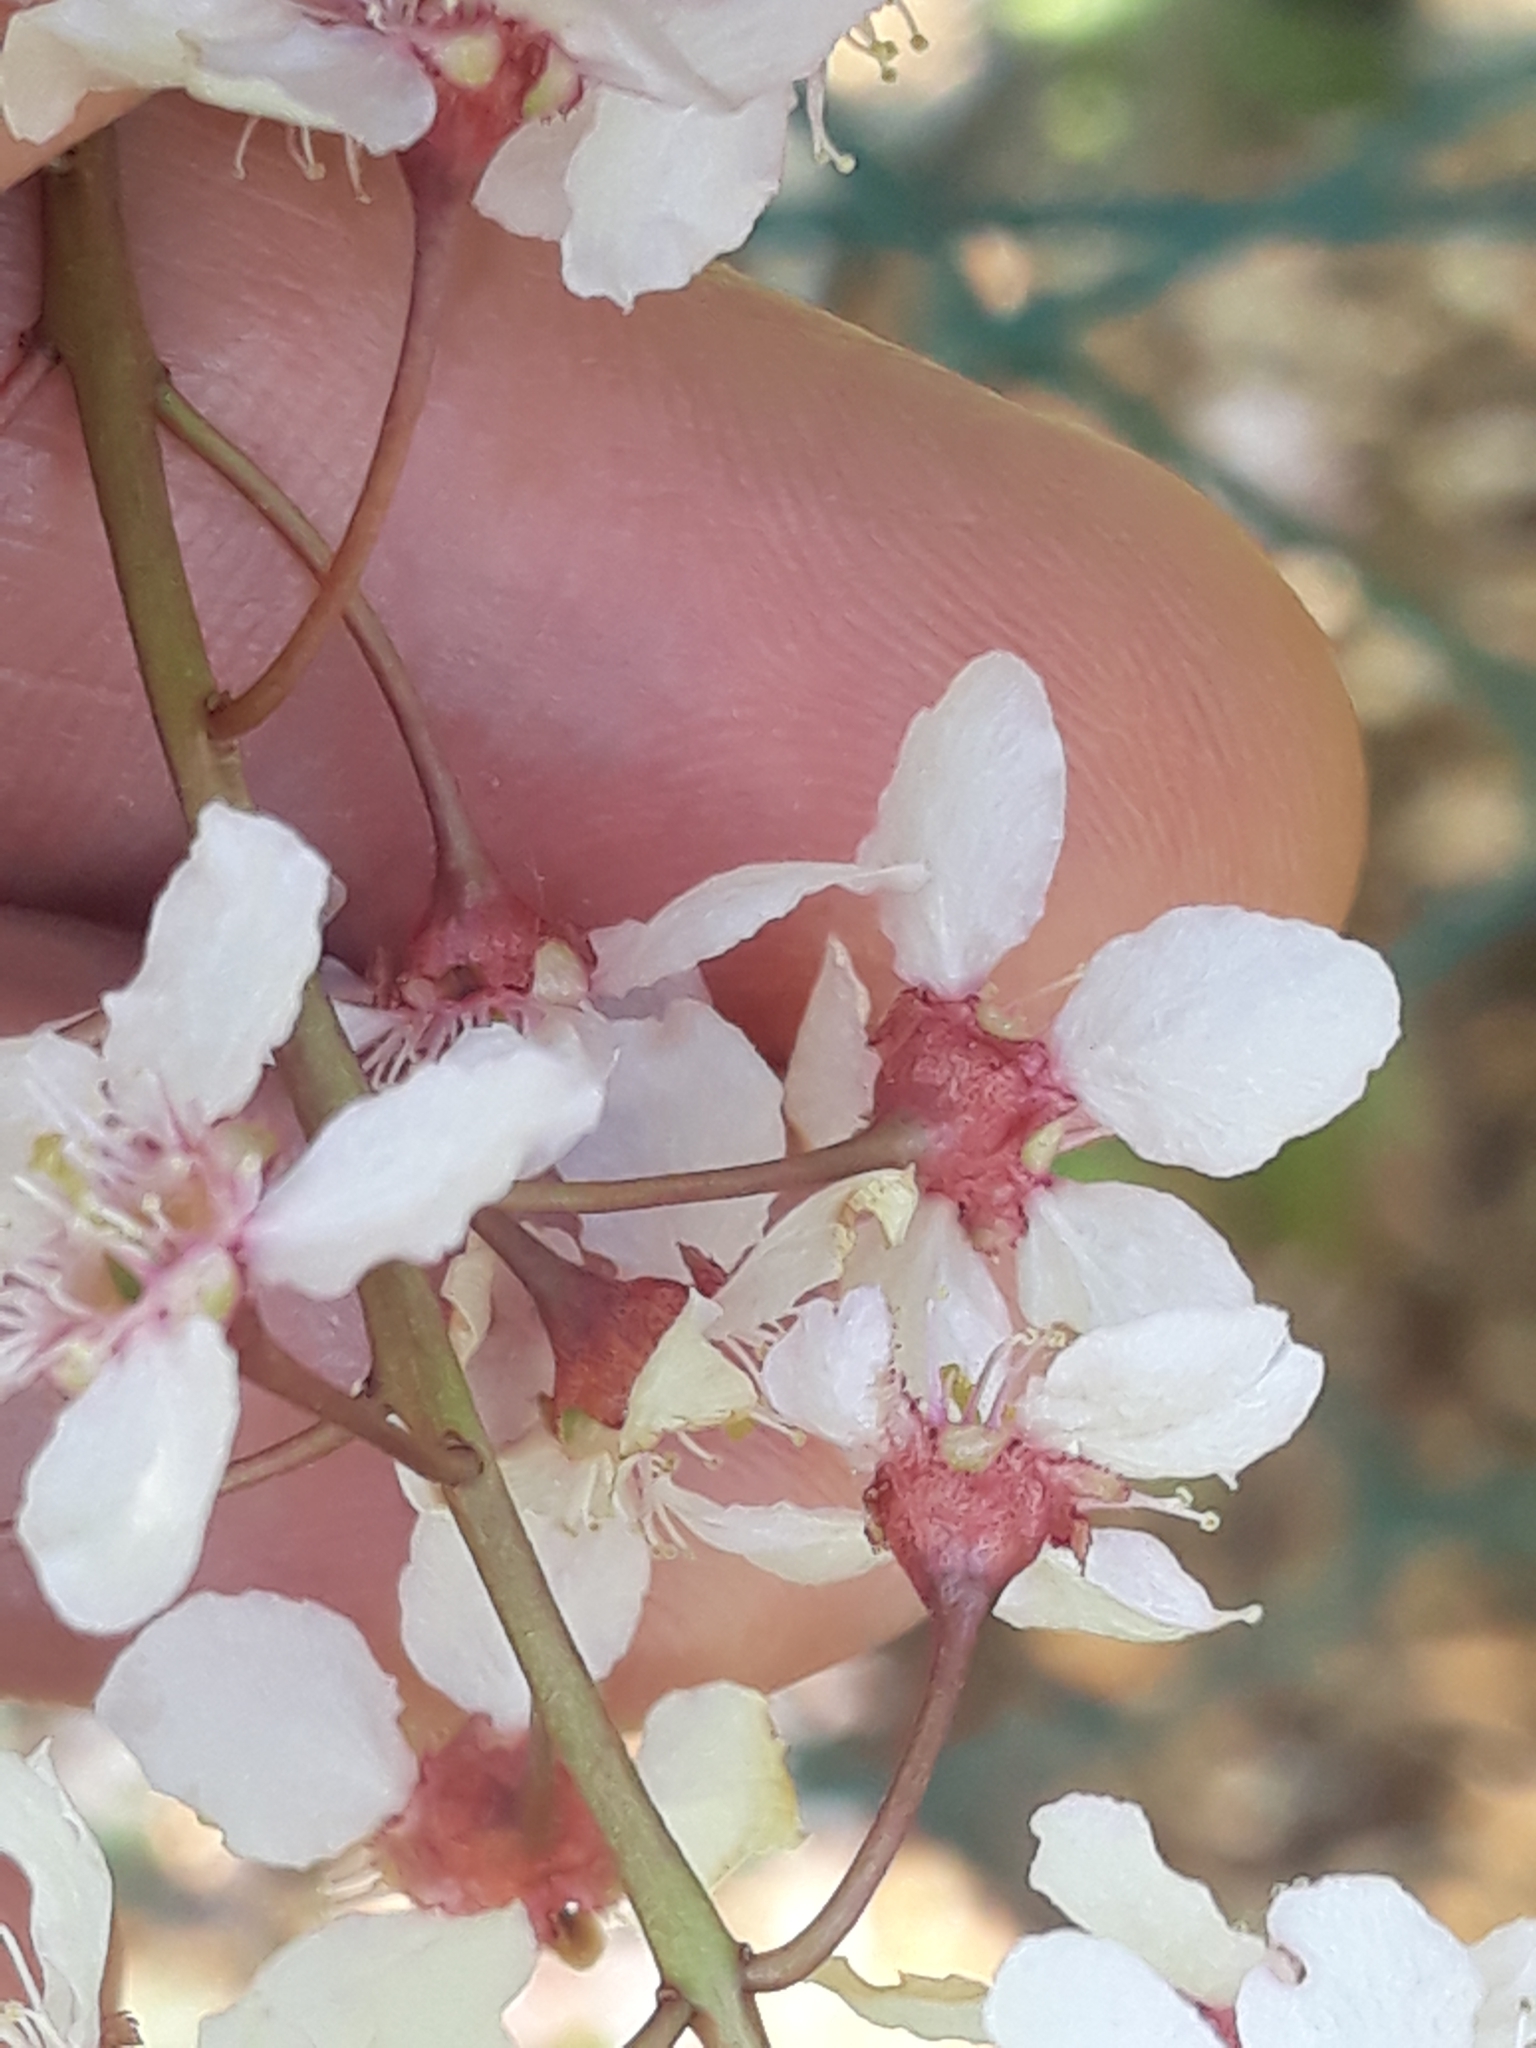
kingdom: Plantae
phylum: Tracheophyta
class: Magnoliopsida
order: Rosales
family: Rosaceae
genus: Prunus
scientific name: Prunus padus
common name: Bird cherry
